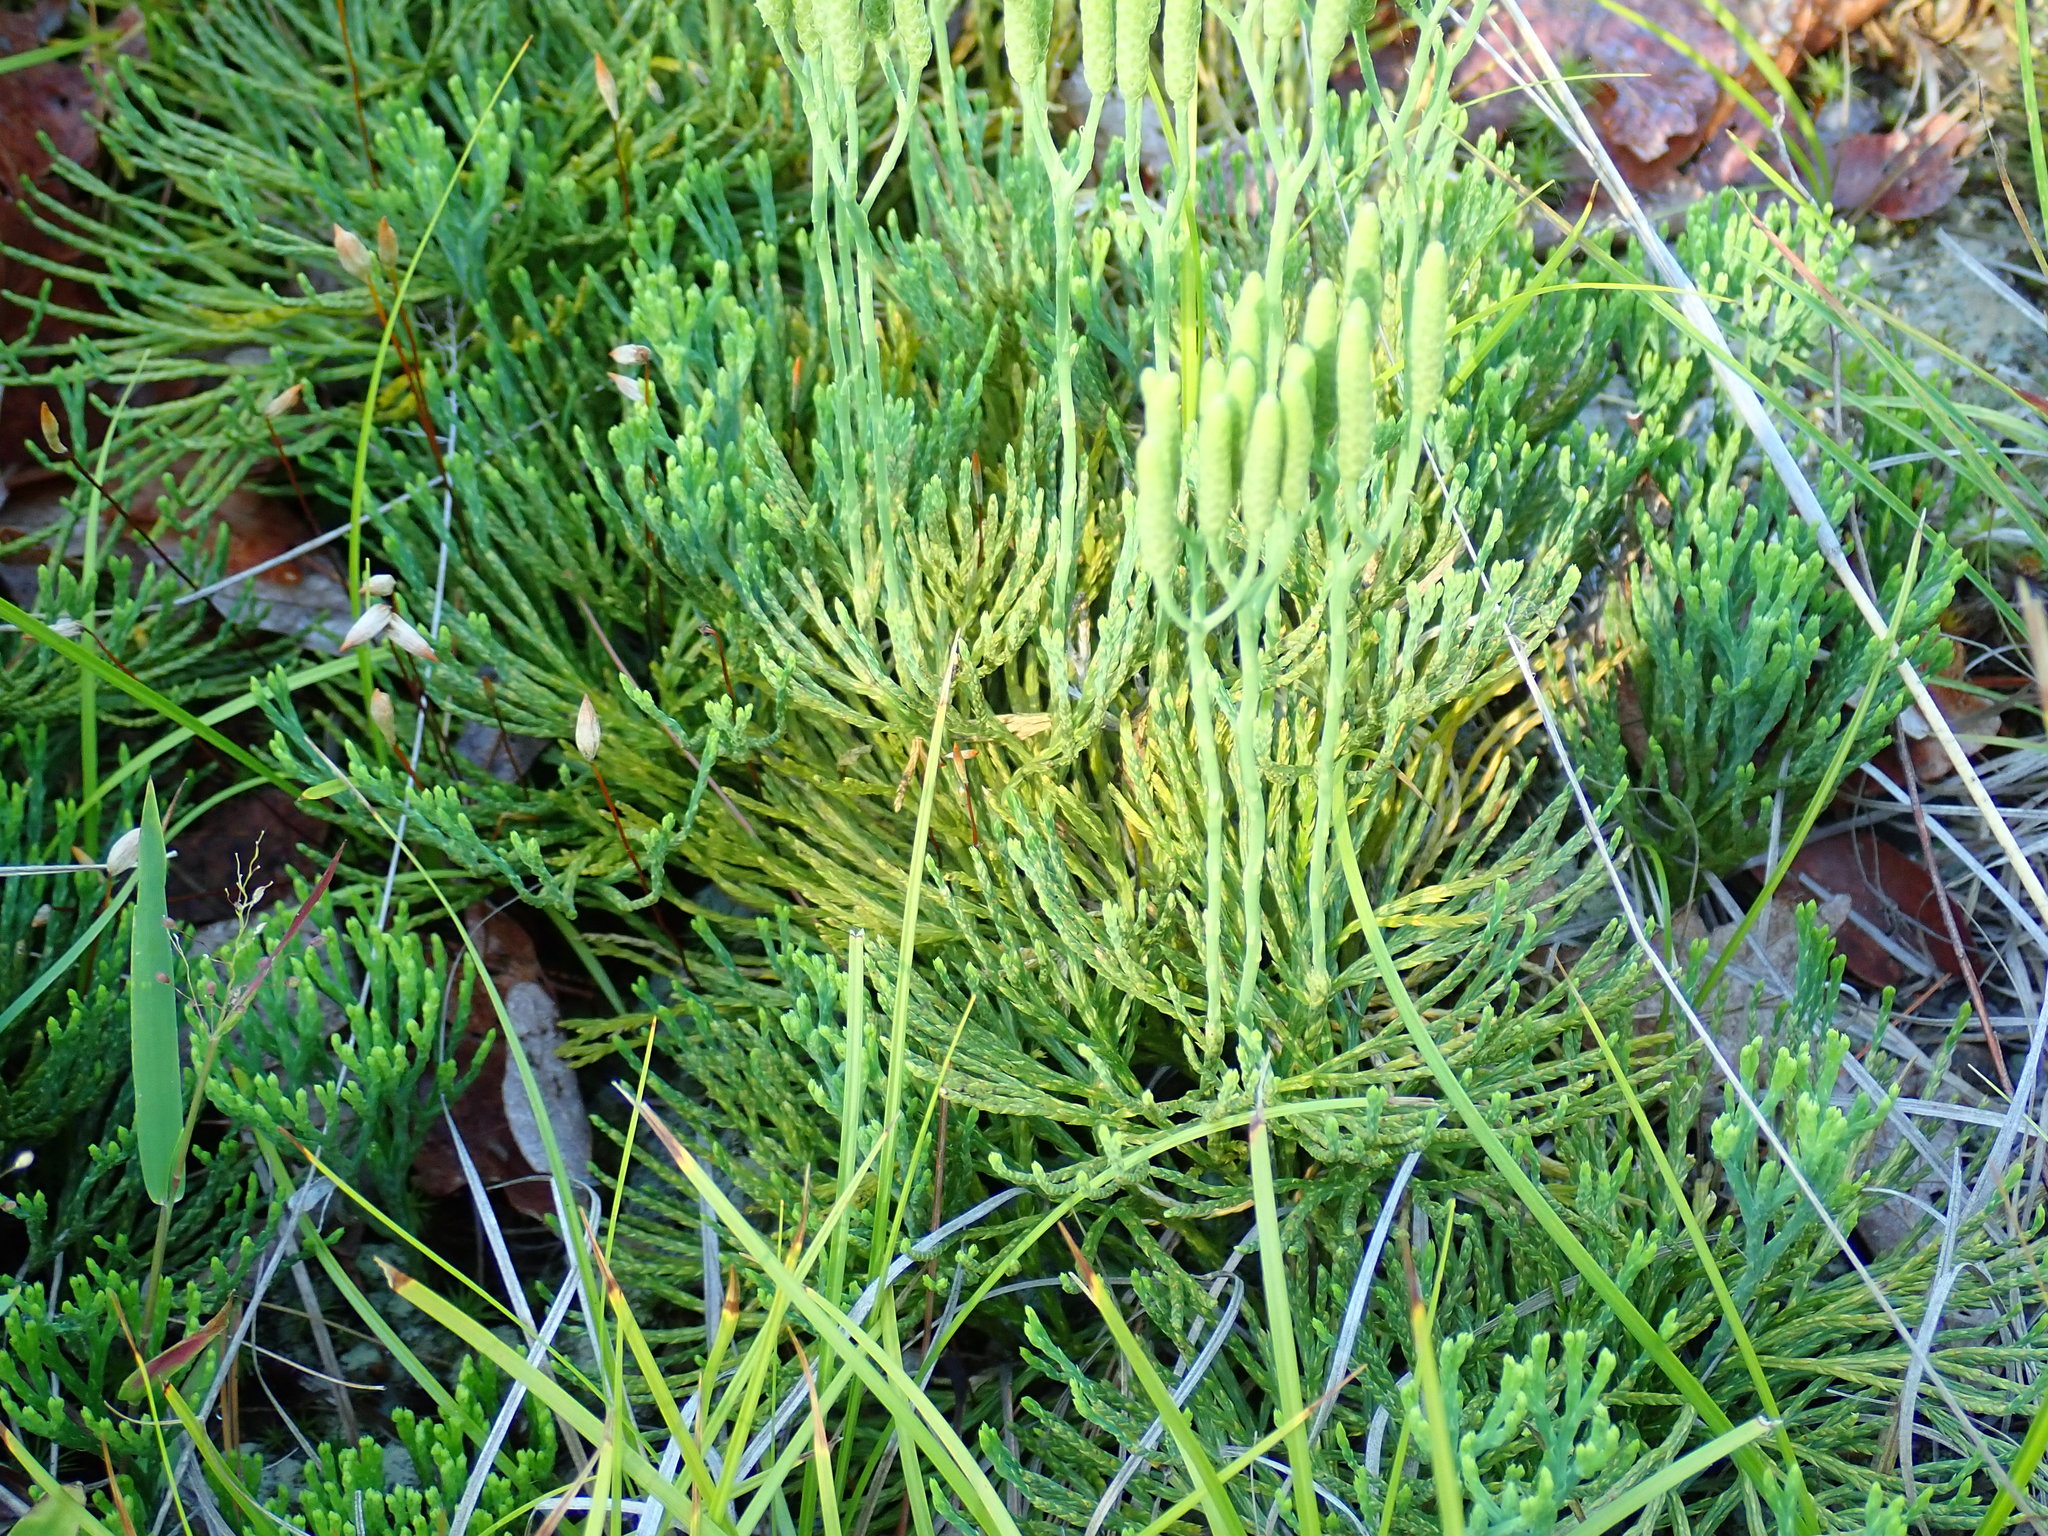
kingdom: Plantae
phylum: Tracheophyta
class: Lycopodiopsida
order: Lycopodiales
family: Lycopodiaceae
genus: Diphasiastrum
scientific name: Diphasiastrum tristachyum
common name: Blue ground-cedar
